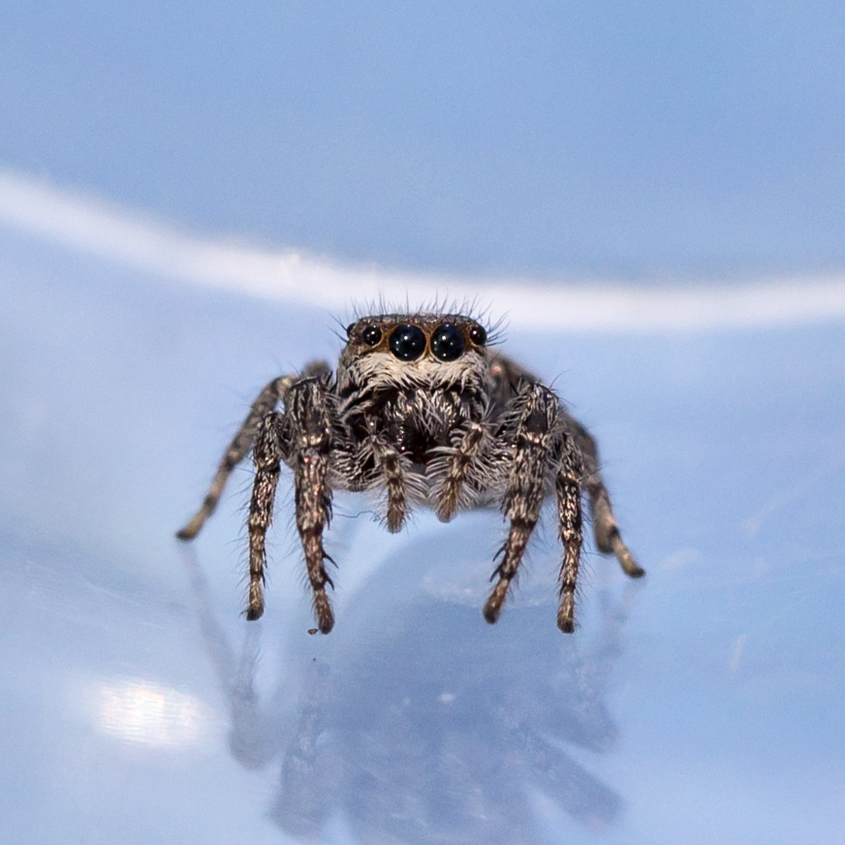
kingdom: Animalia
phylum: Arthropoda
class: Arachnida
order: Araneae
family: Salticidae
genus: Eris
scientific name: Eris militaris
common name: Bronze jumper
